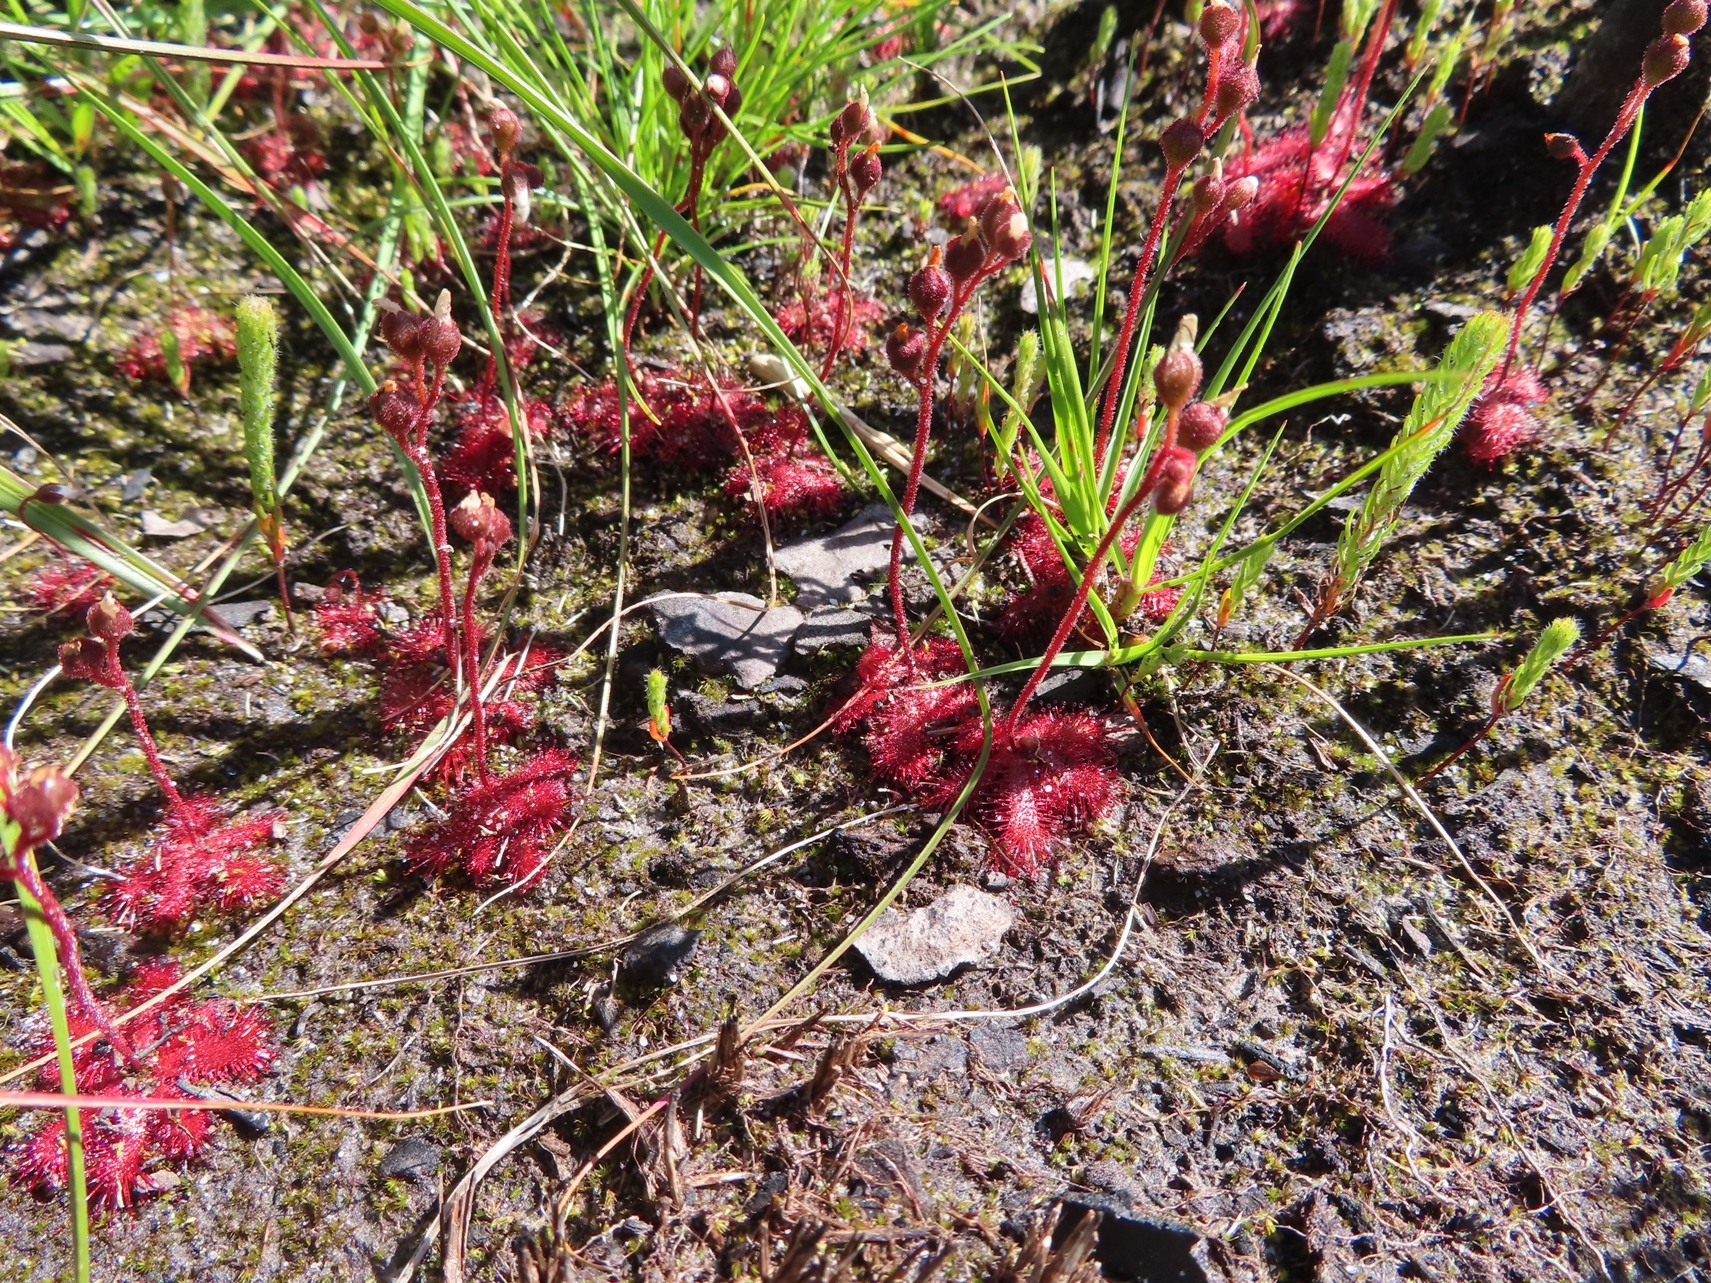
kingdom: Plantae
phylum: Tracheophyta
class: Magnoliopsida
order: Caryophyllales
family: Droseraceae
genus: Drosera
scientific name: Drosera trinervia
